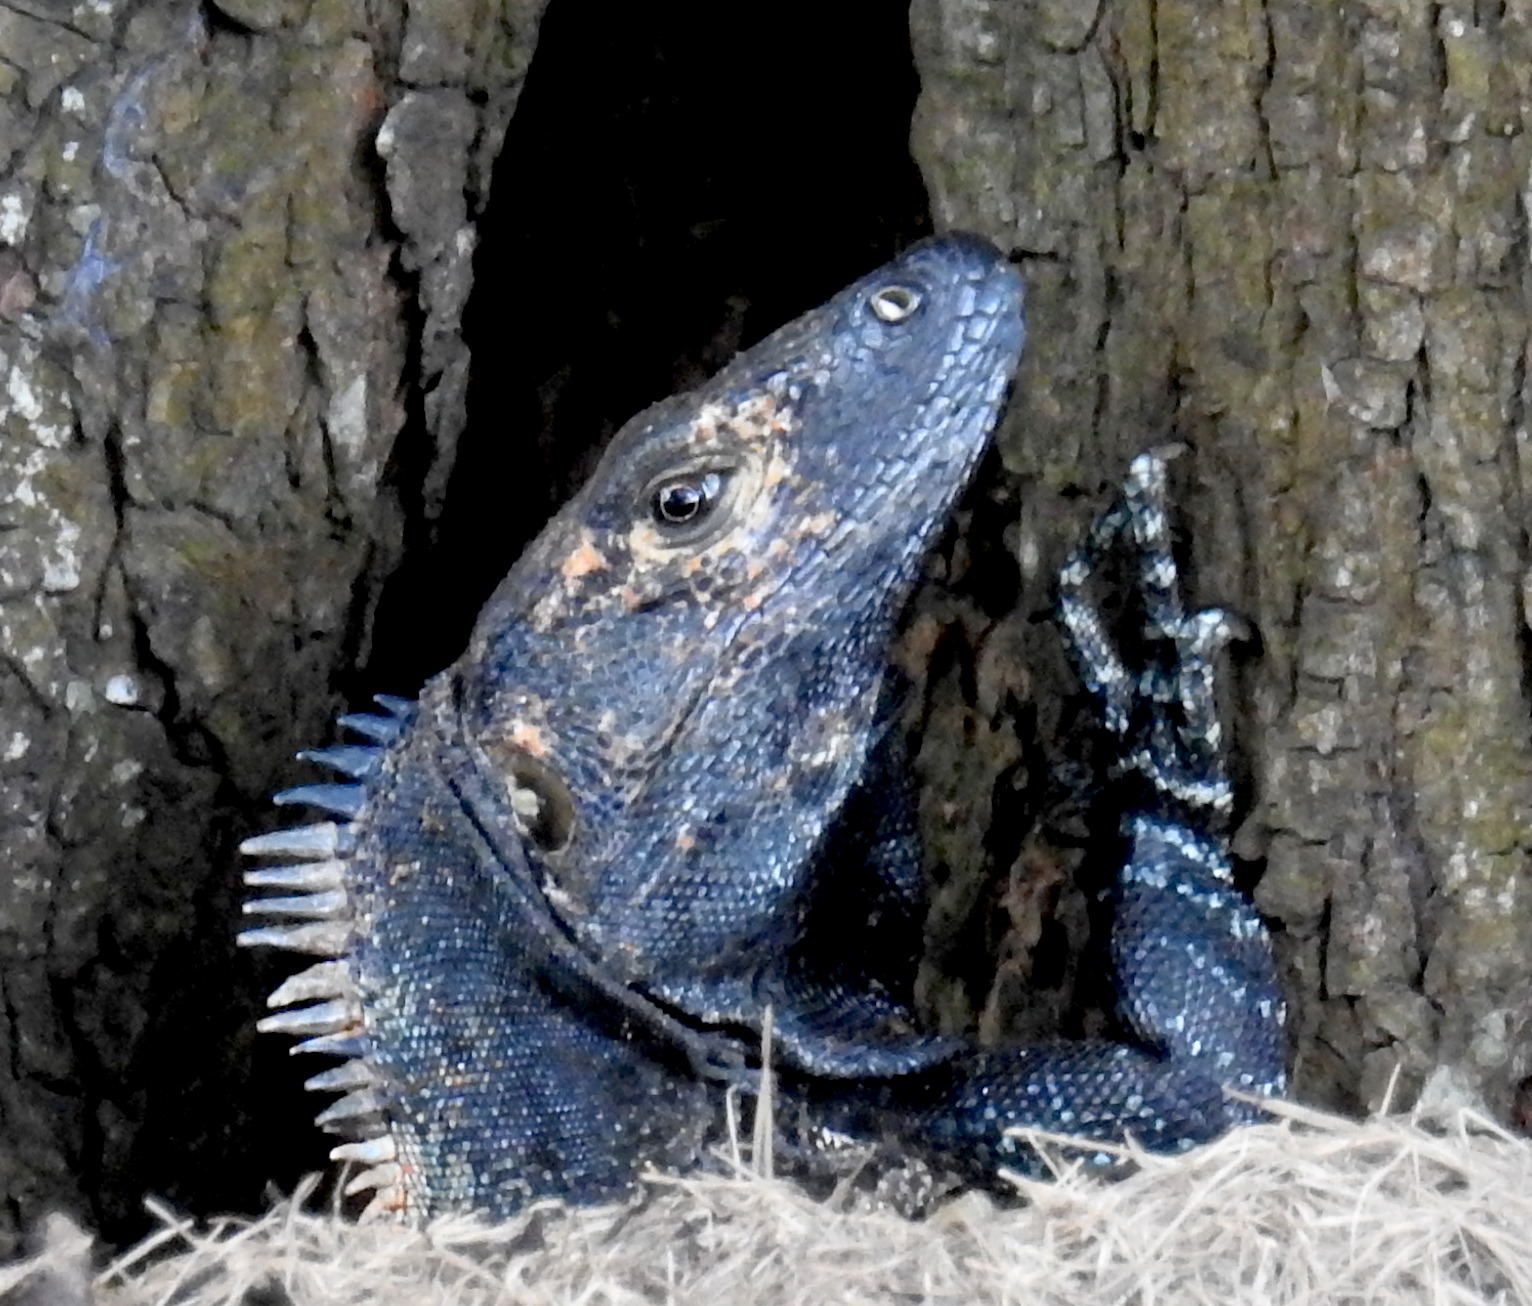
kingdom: Animalia
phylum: Chordata
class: Squamata
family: Iguanidae
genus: Ctenosaura
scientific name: Ctenosaura similis
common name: Black spiny-tailed iguana
